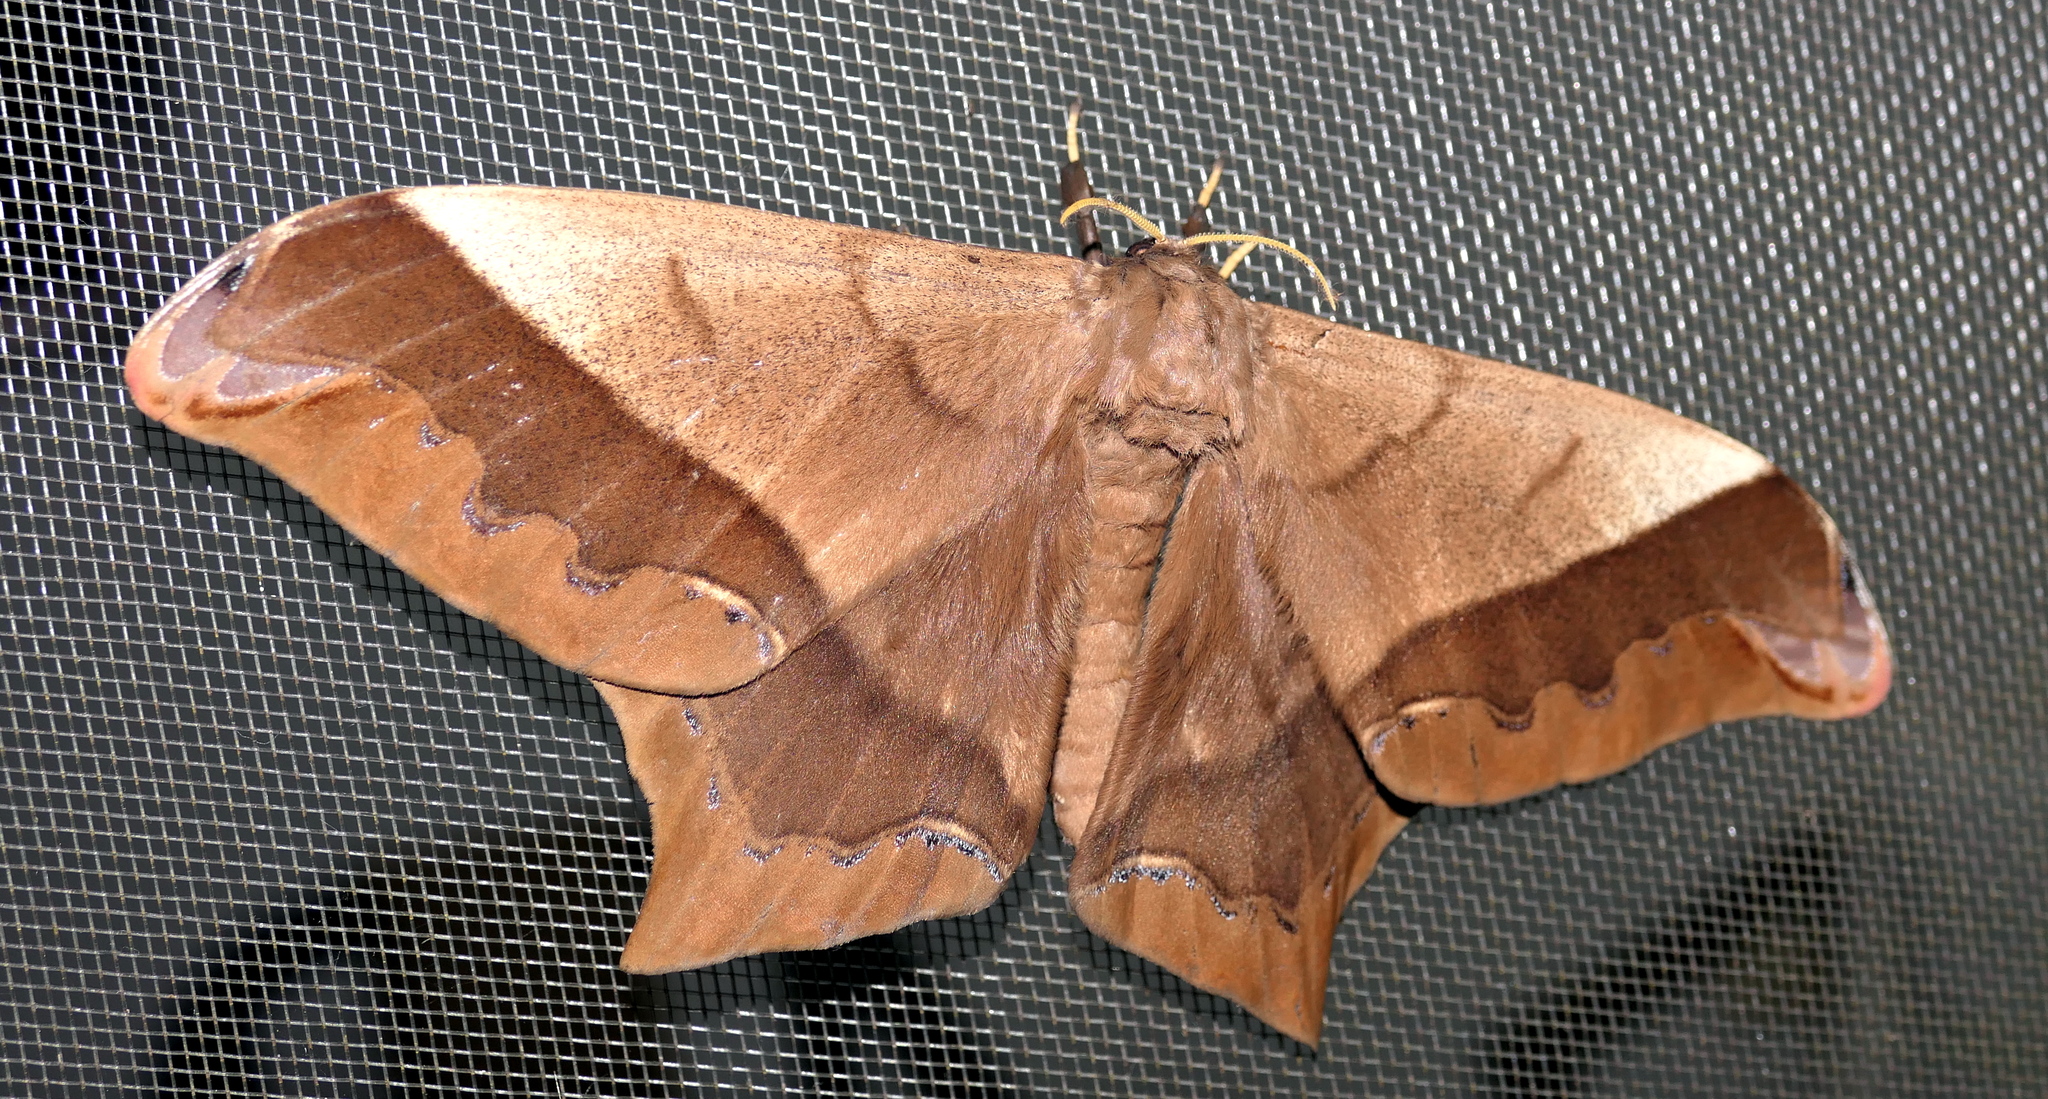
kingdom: Animalia
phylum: Arthropoda
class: Insecta
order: Lepidoptera
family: Saturniidae
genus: Arsenura
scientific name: Arsenura armida
